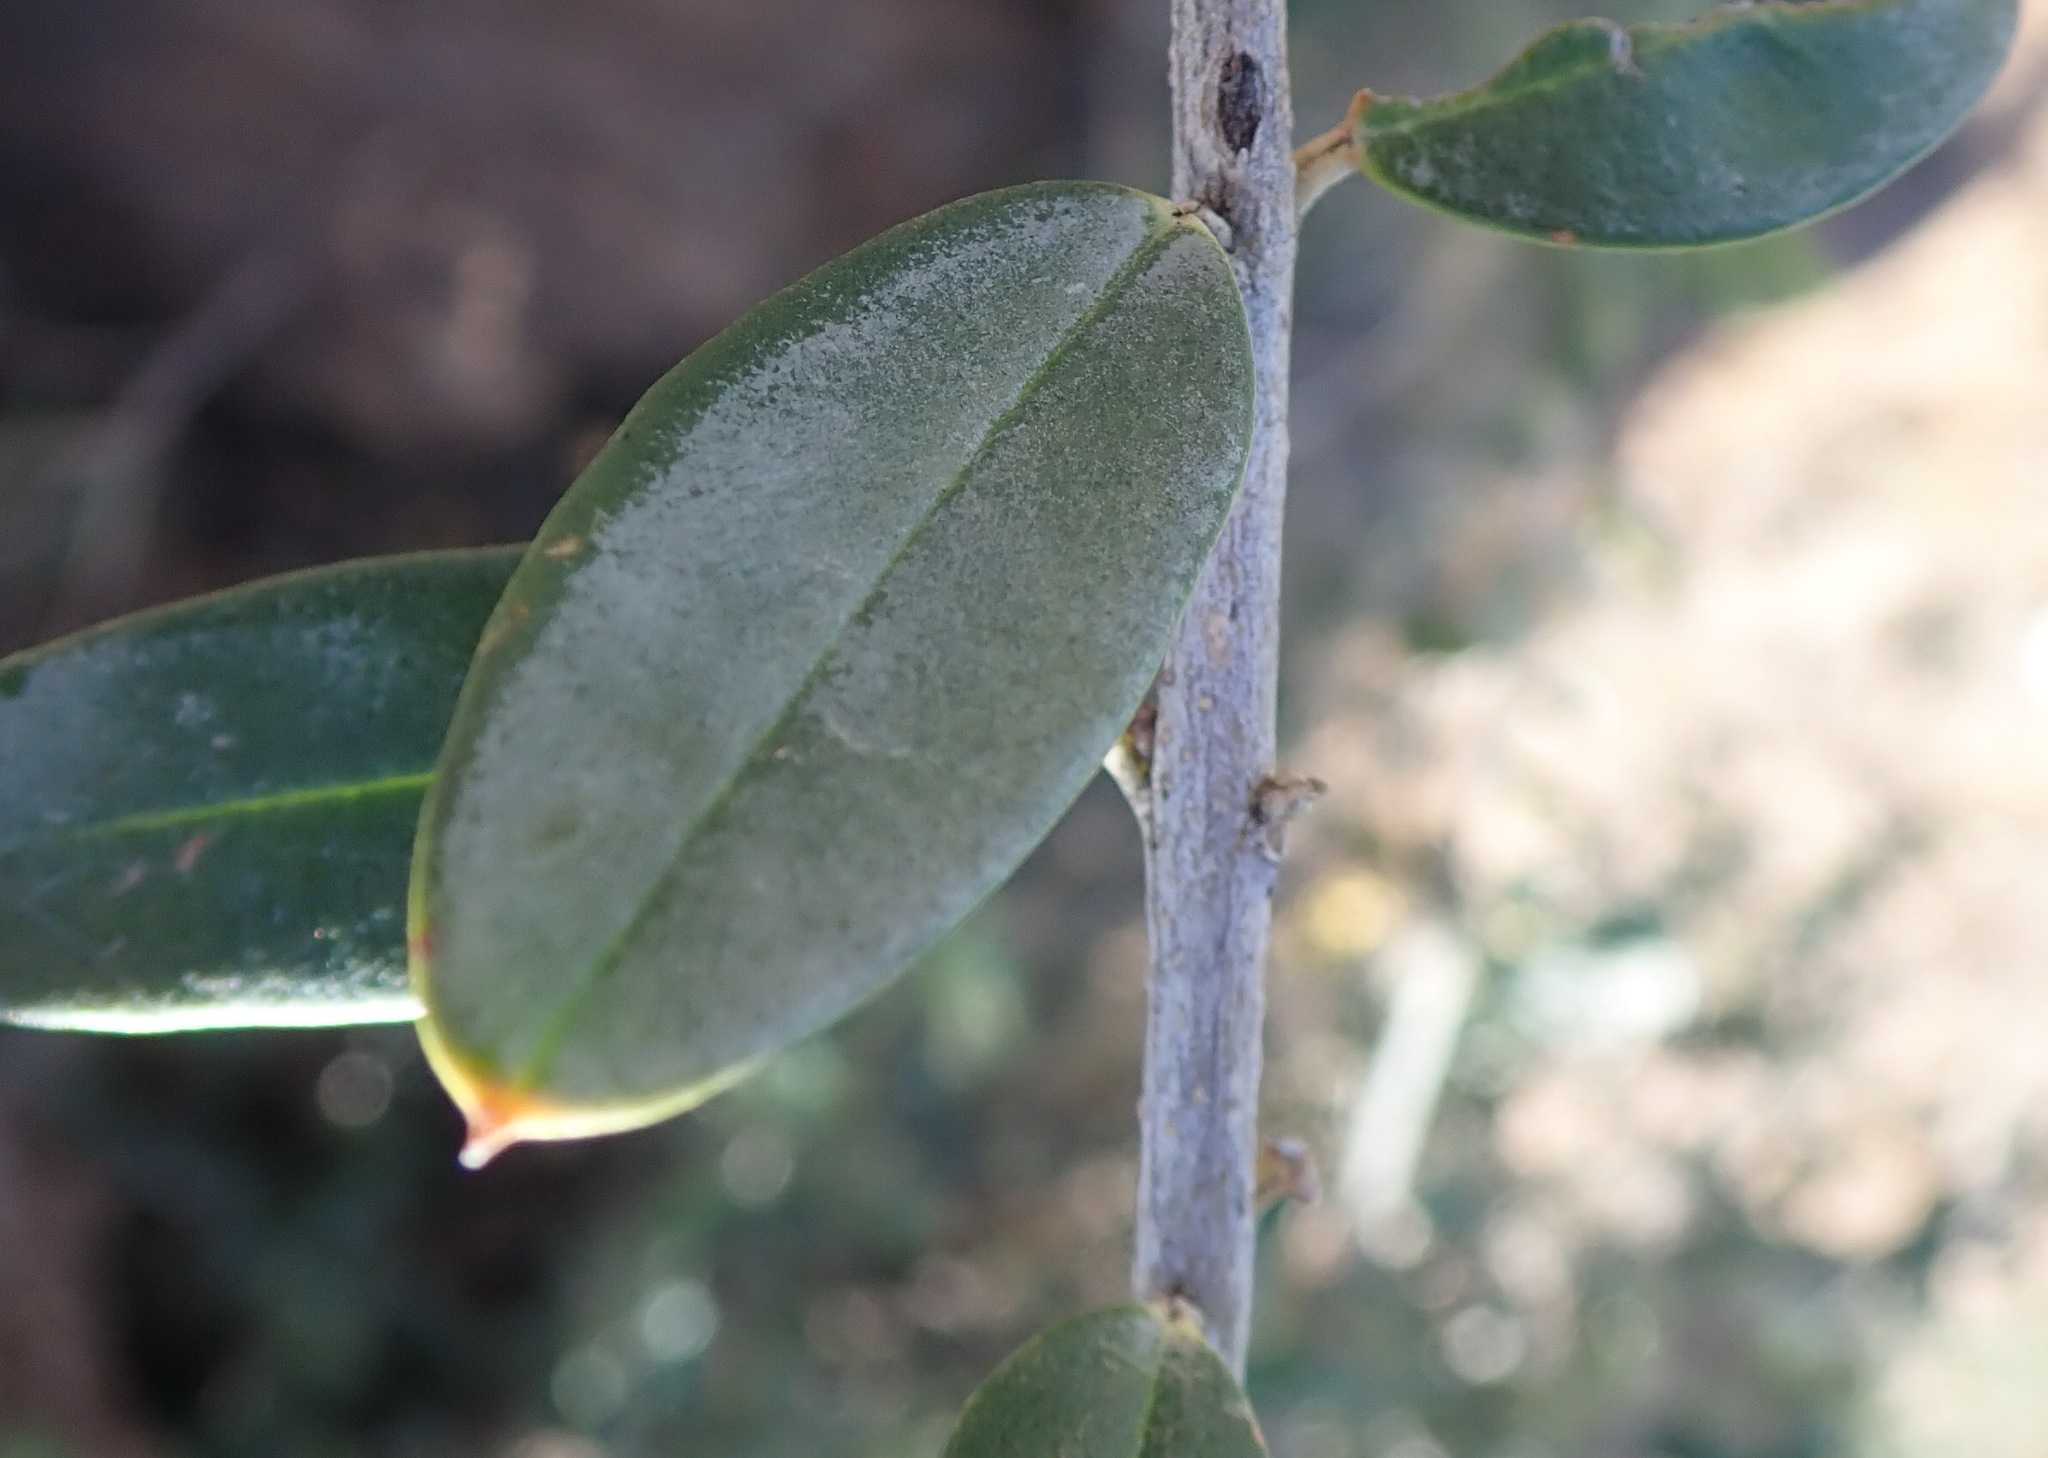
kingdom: Plantae
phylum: Tracheophyta
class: Magnoliopsida
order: Lamiales
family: Oleaceae
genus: Olea
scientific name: Olea europaea
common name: Olive
